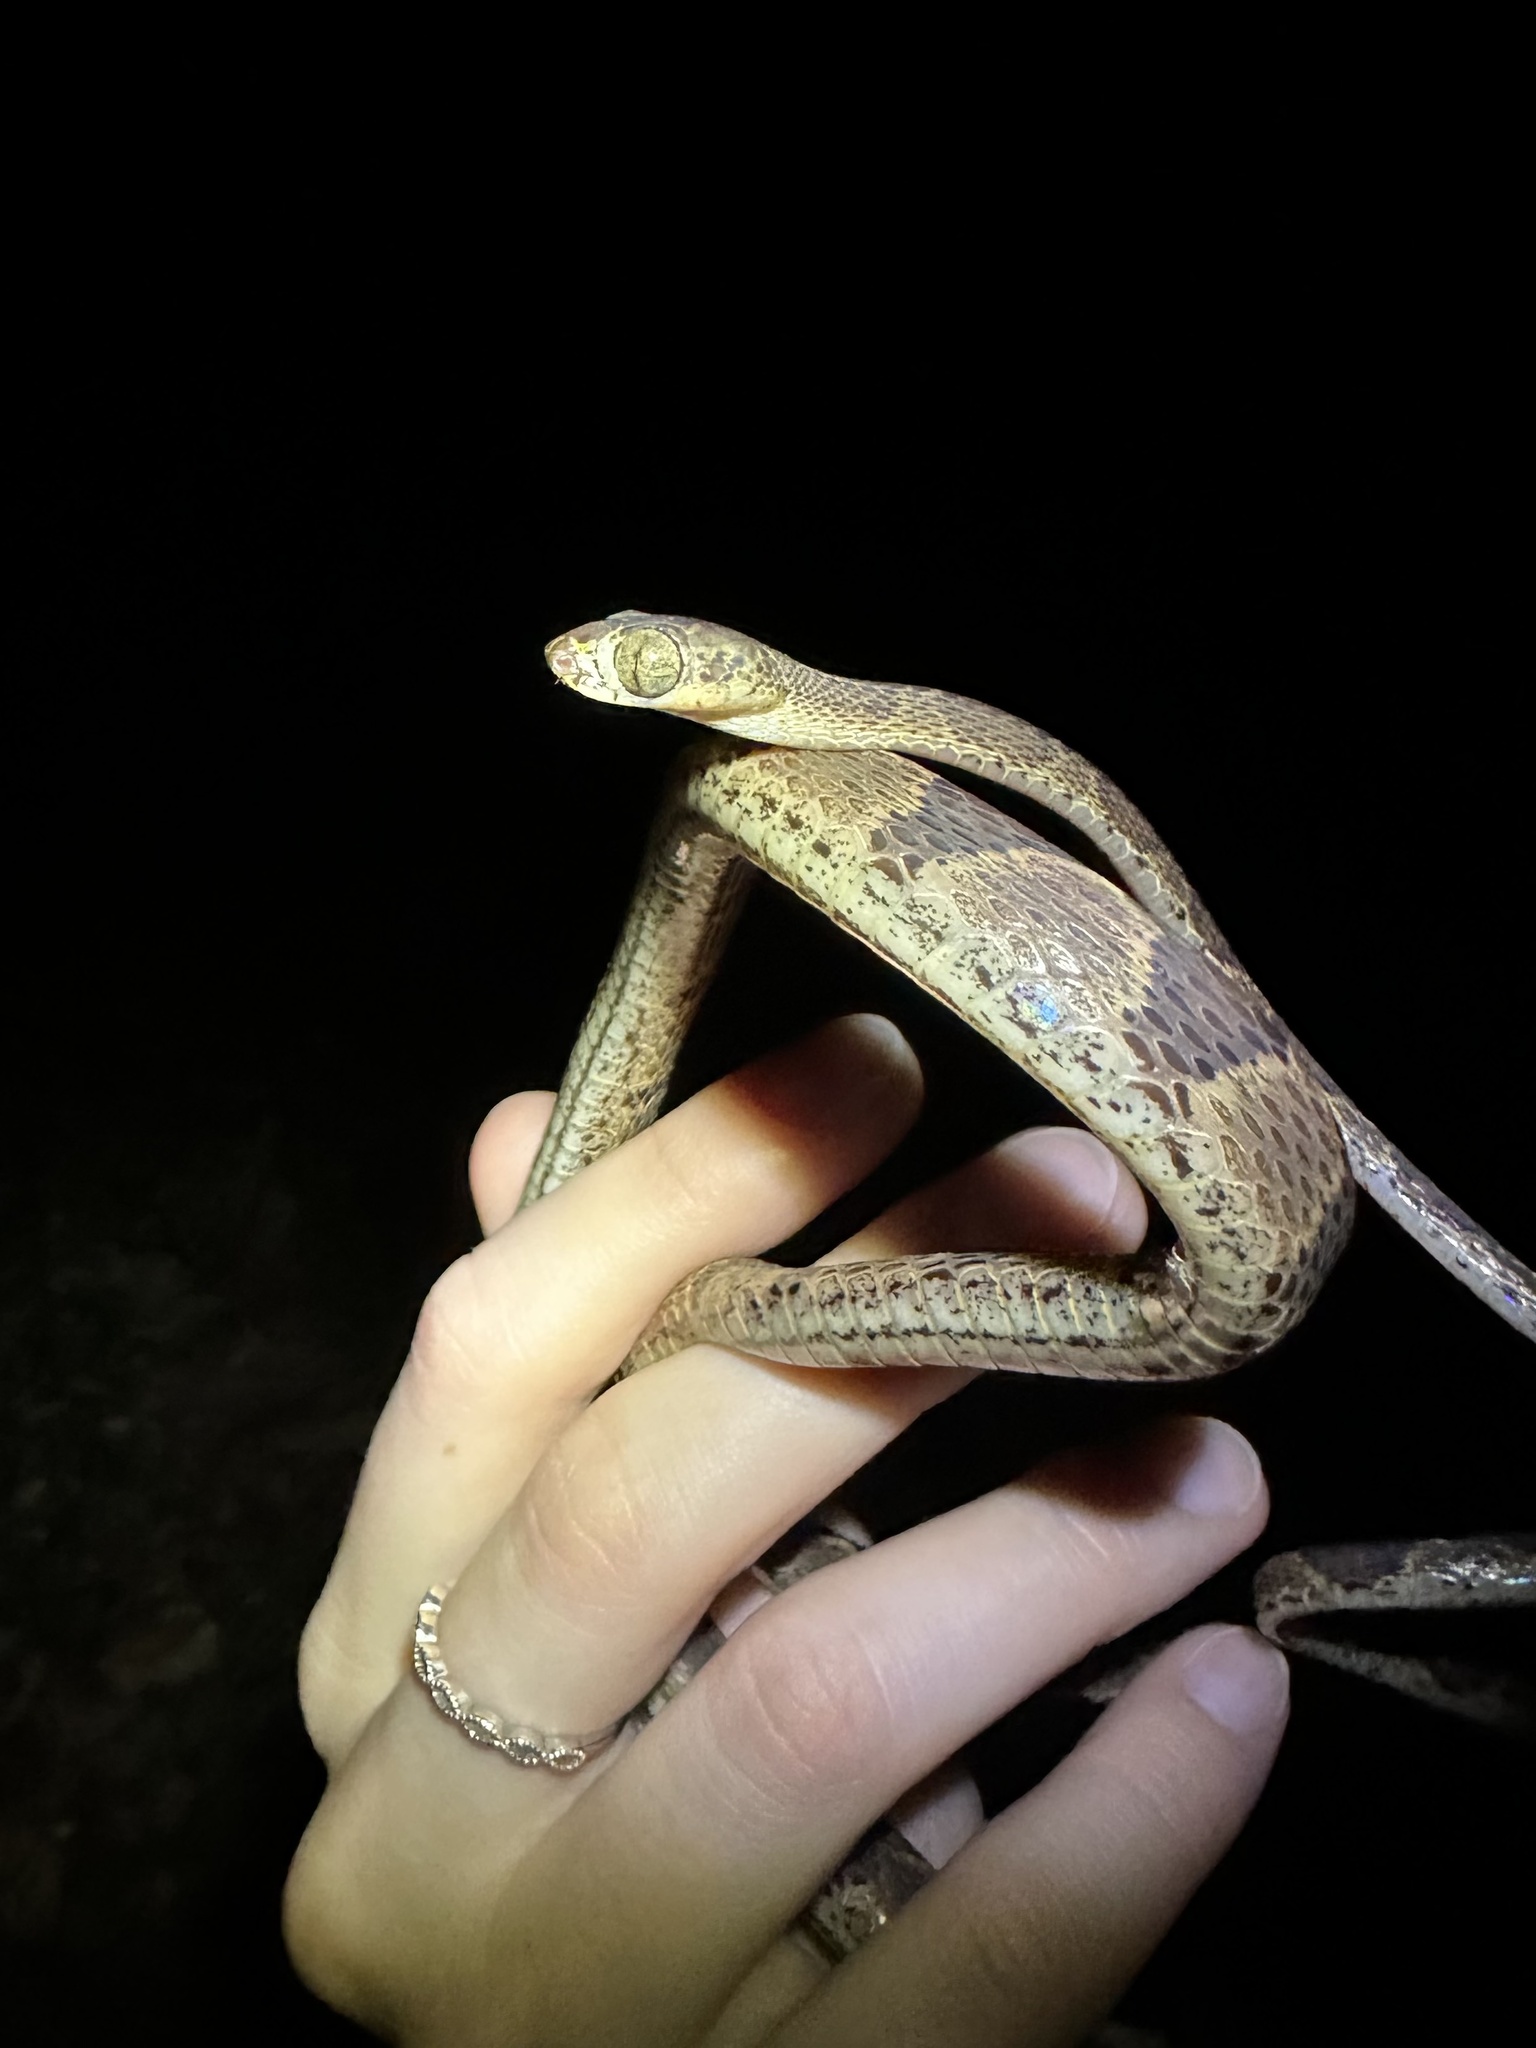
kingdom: Animalia
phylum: Chordata
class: Squamata
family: Colubridae
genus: Imantodes
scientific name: Imantodes cenchoa
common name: Blunthead tree snake
